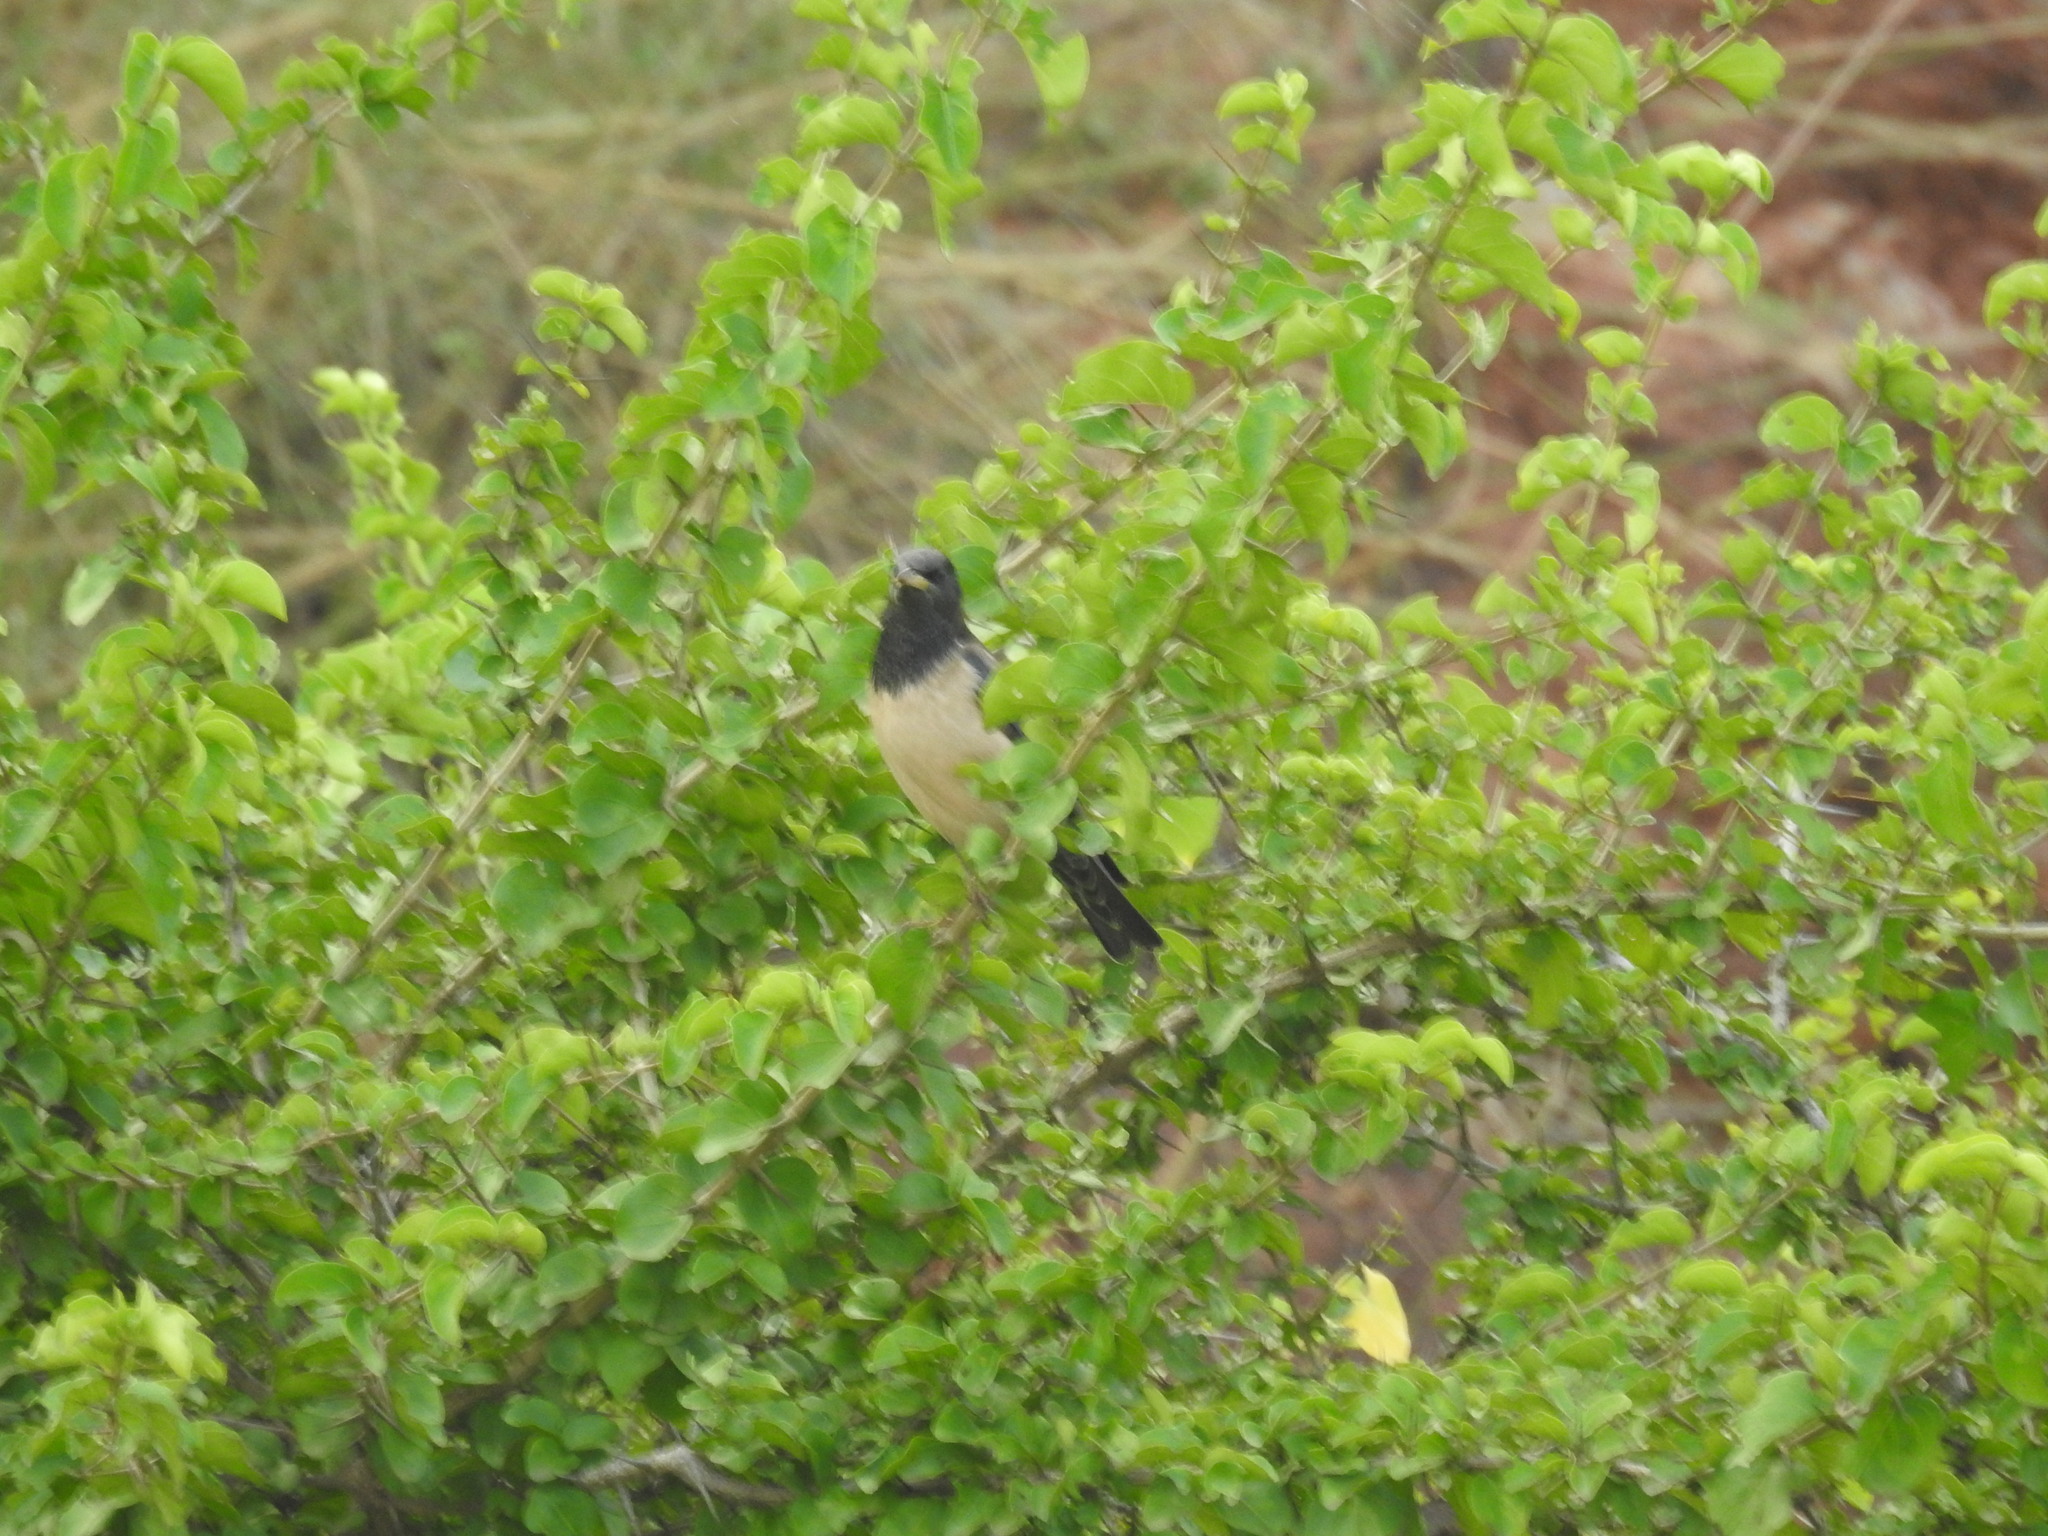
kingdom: Animalia
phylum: Chordata
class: Aves
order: Passeriformes
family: Sturnidae
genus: Pastor
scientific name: Pastor roseus
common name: Rosy starling
